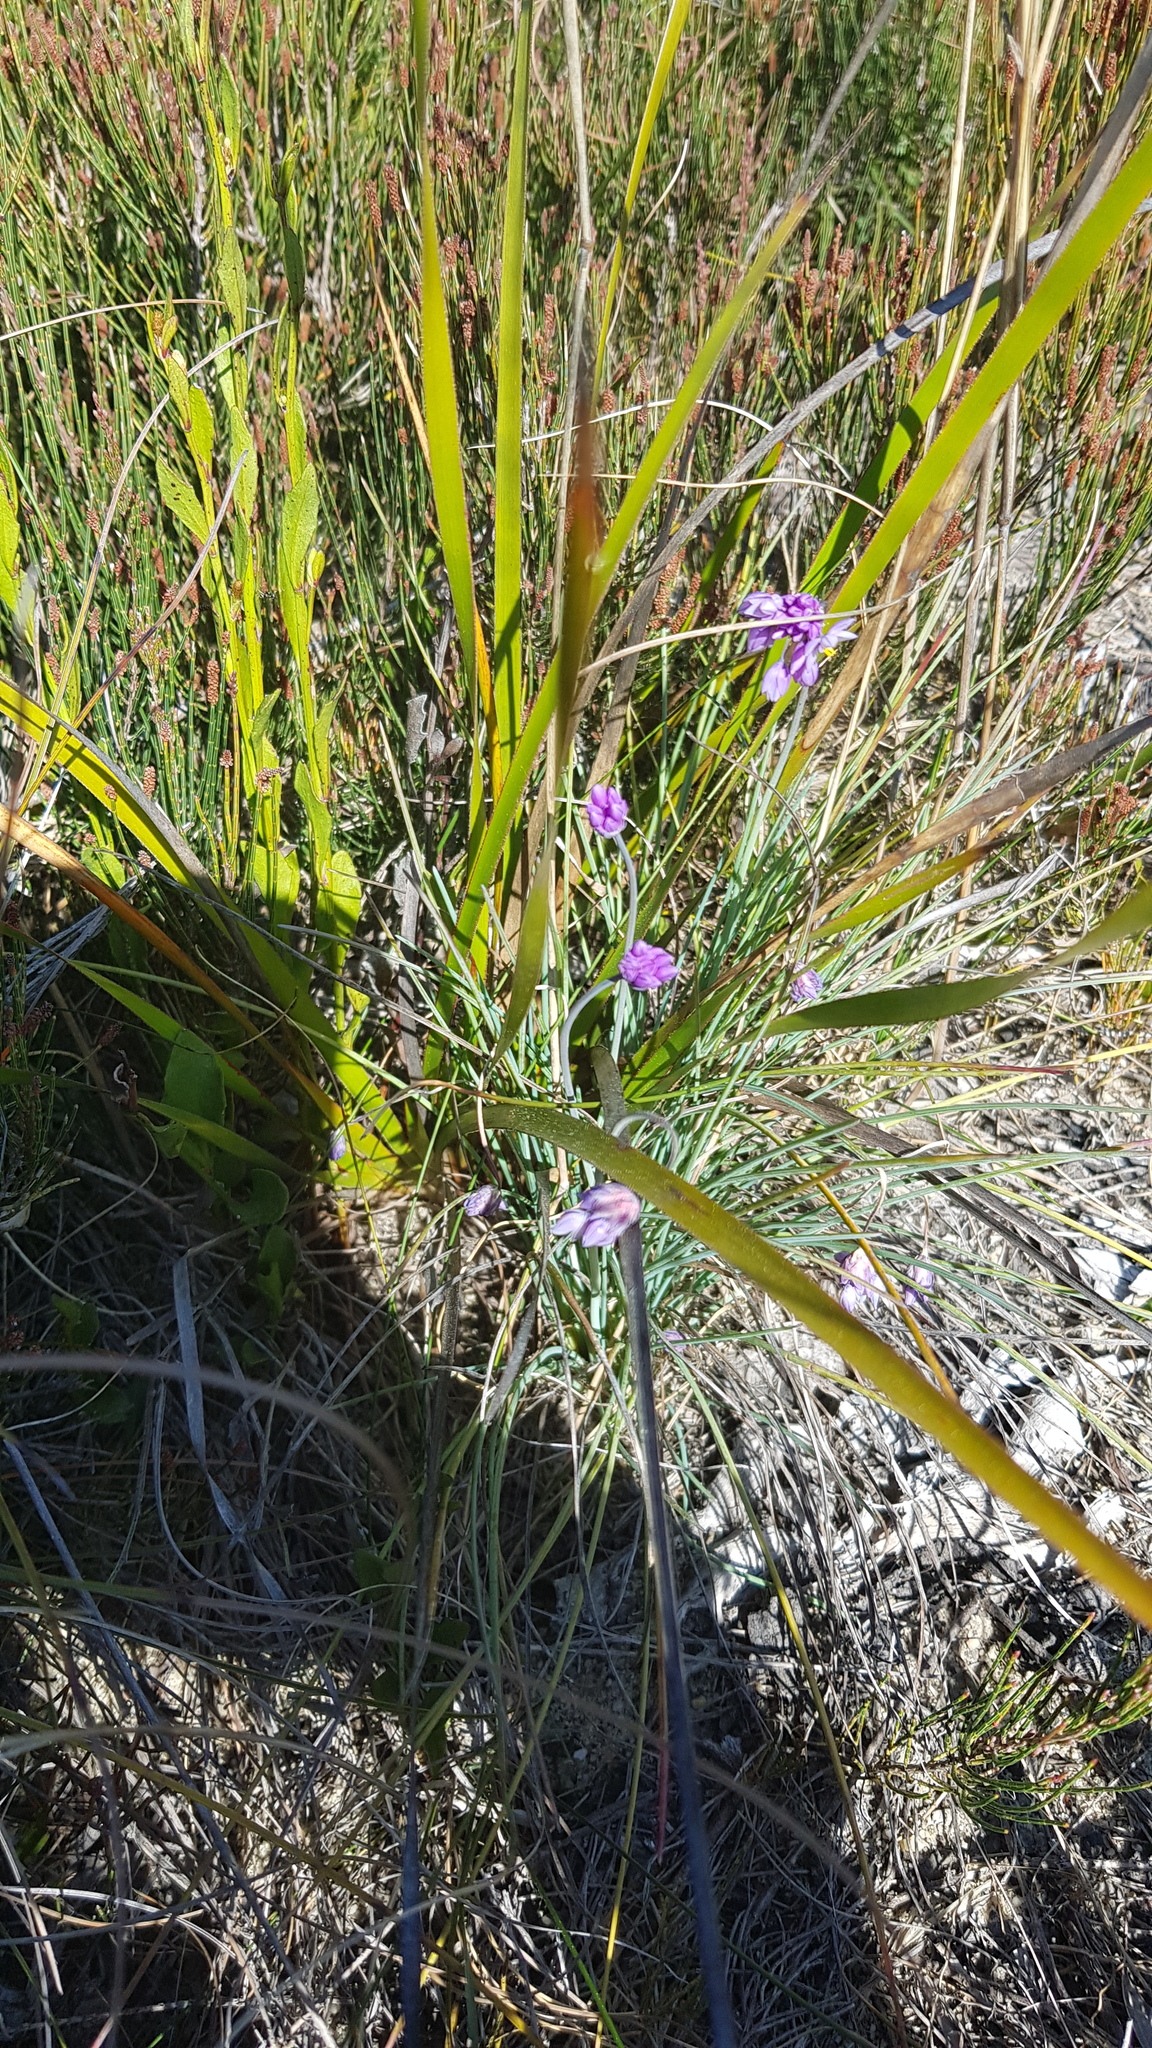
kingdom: Plantae
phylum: Tracheophyta
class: Liliopsida
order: Asparagales
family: Asparagaceae
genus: Sowerbaea
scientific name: Sowerbaea juncea
